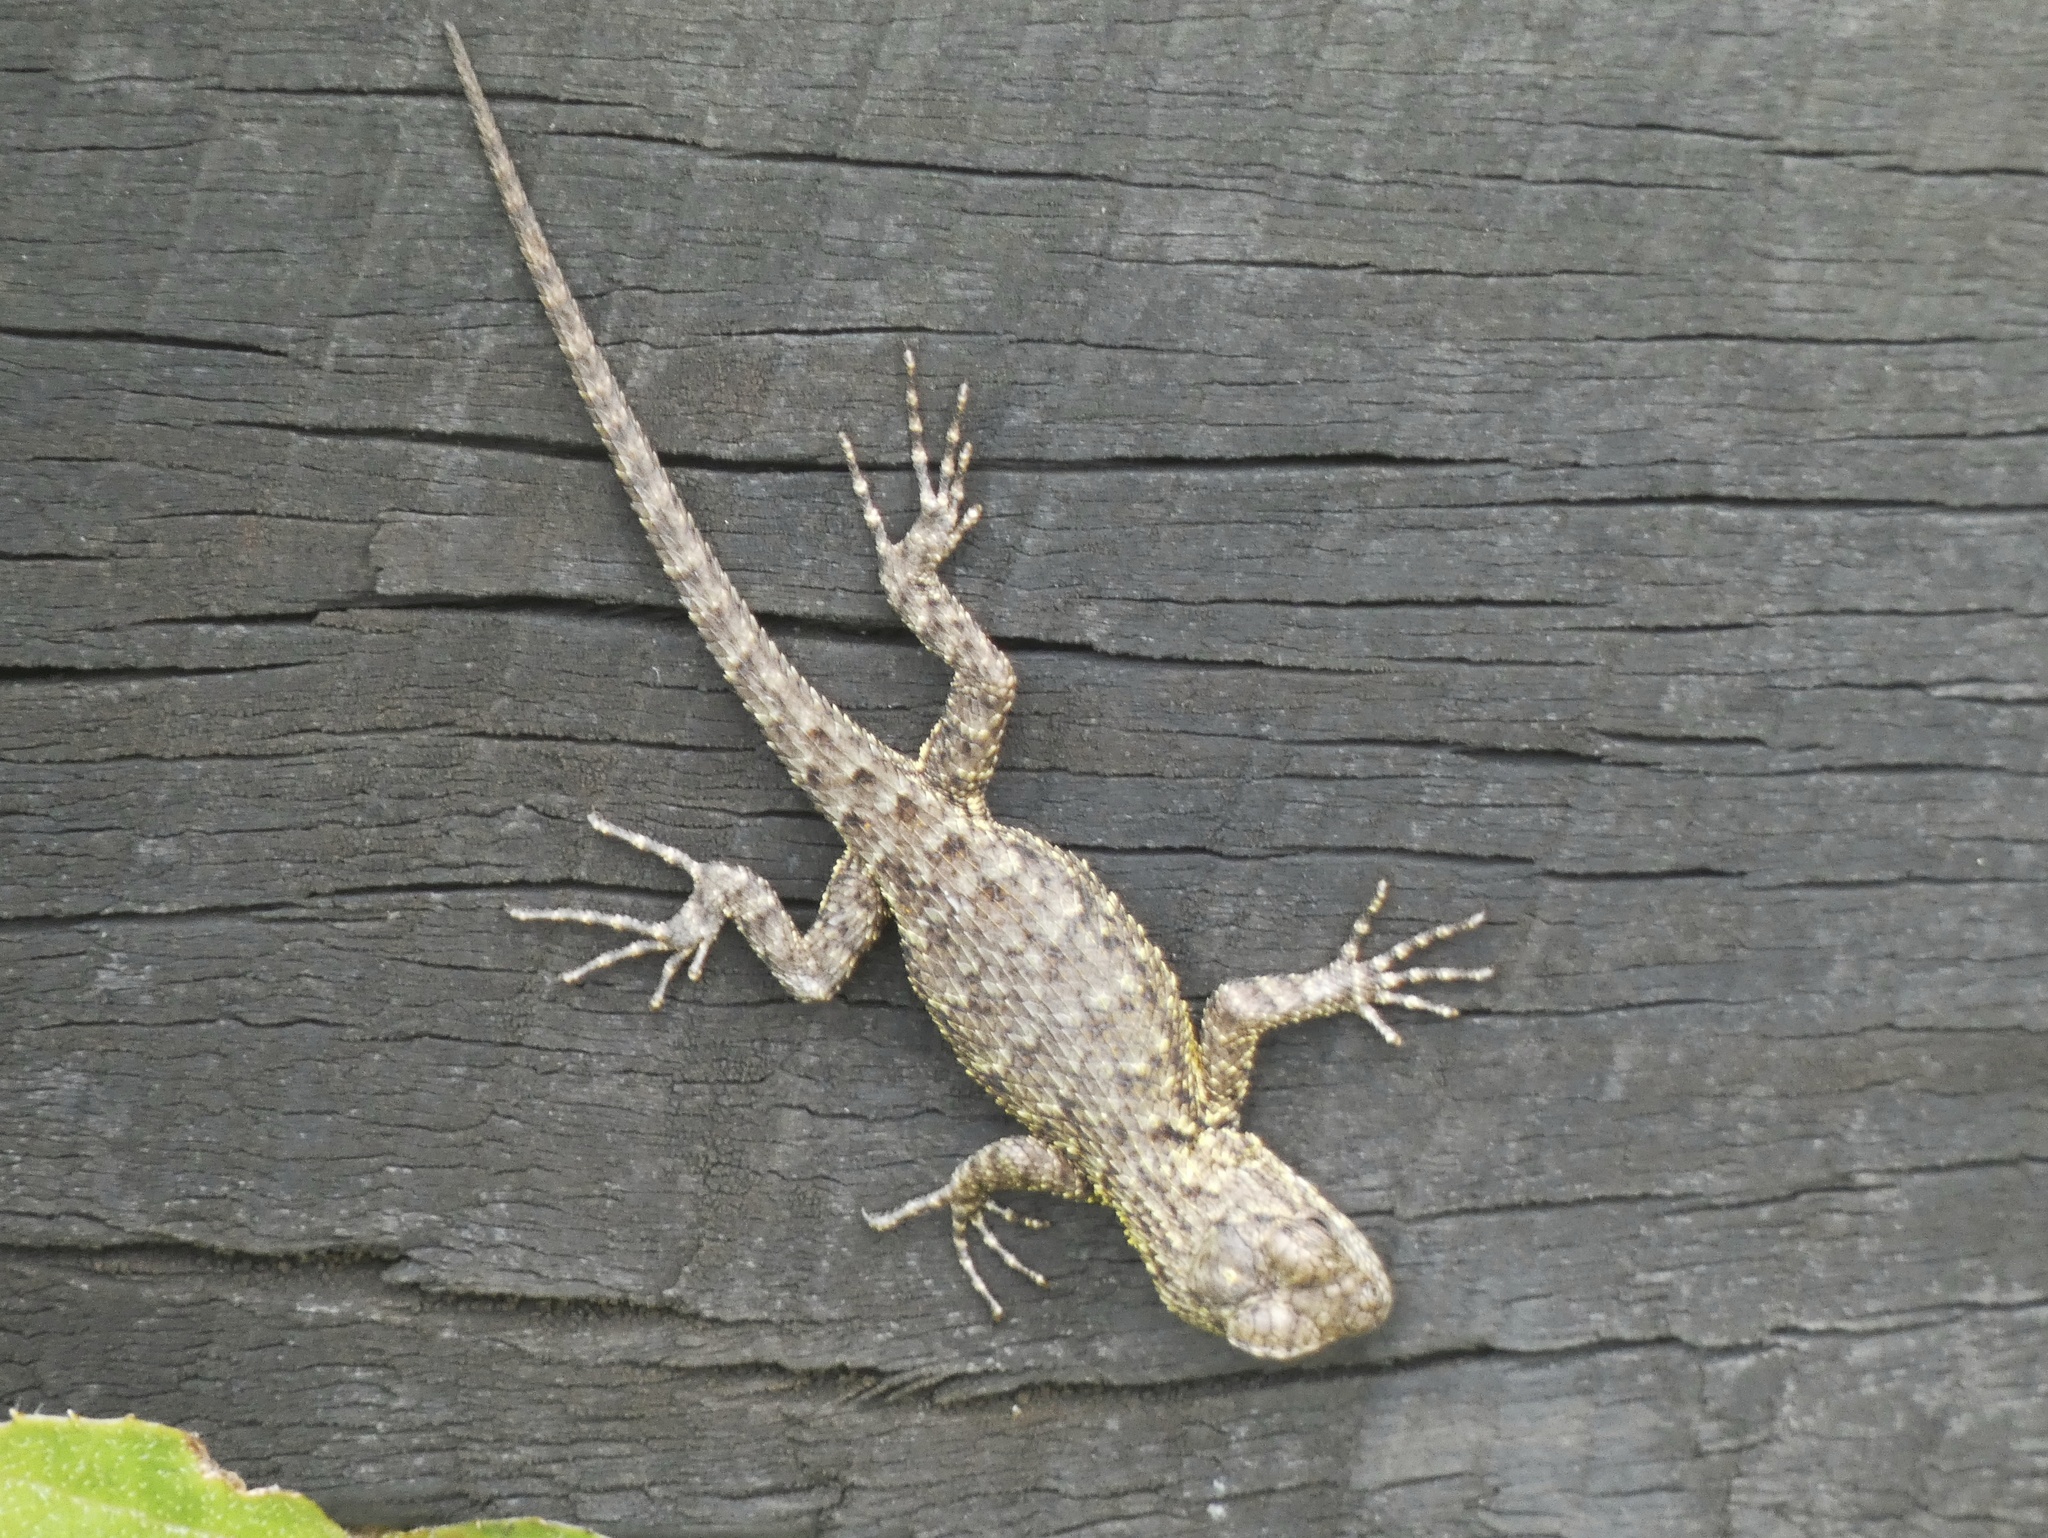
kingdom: Animalia
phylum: Chordata
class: Squamata
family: Phrynosomatidae
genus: Sceloporus
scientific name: Sceloporus malachiticus
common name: Green spiny lizard
